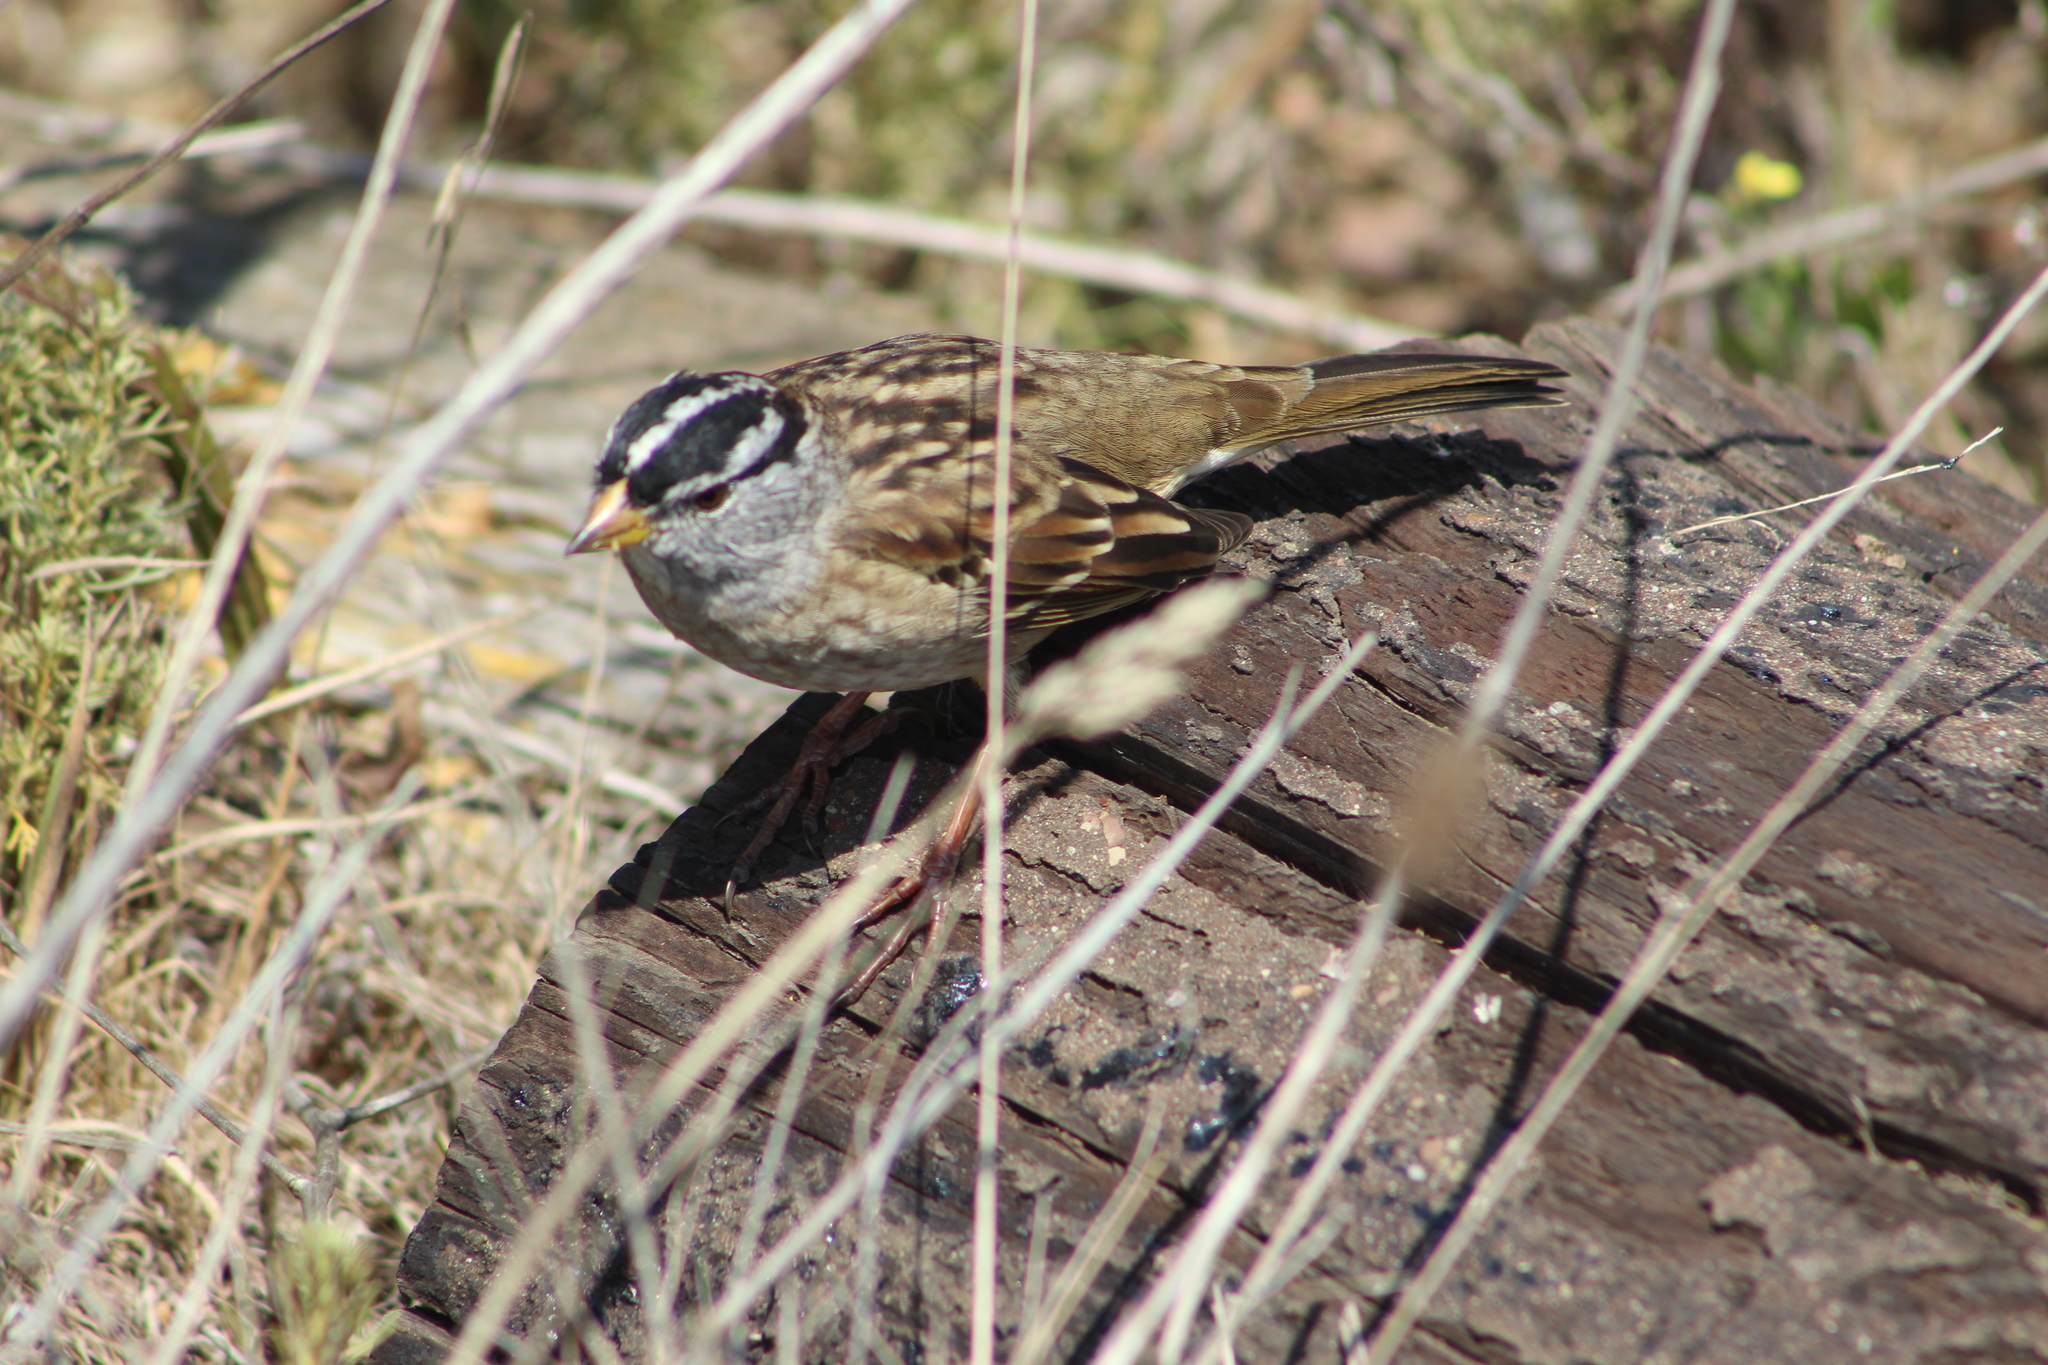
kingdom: Animalia
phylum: Chordata
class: Aves
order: Passeriformes
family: Passerellidae
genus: Zonotrichia
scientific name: Zonotrichia leucophrys
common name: White-crowned sparrow
